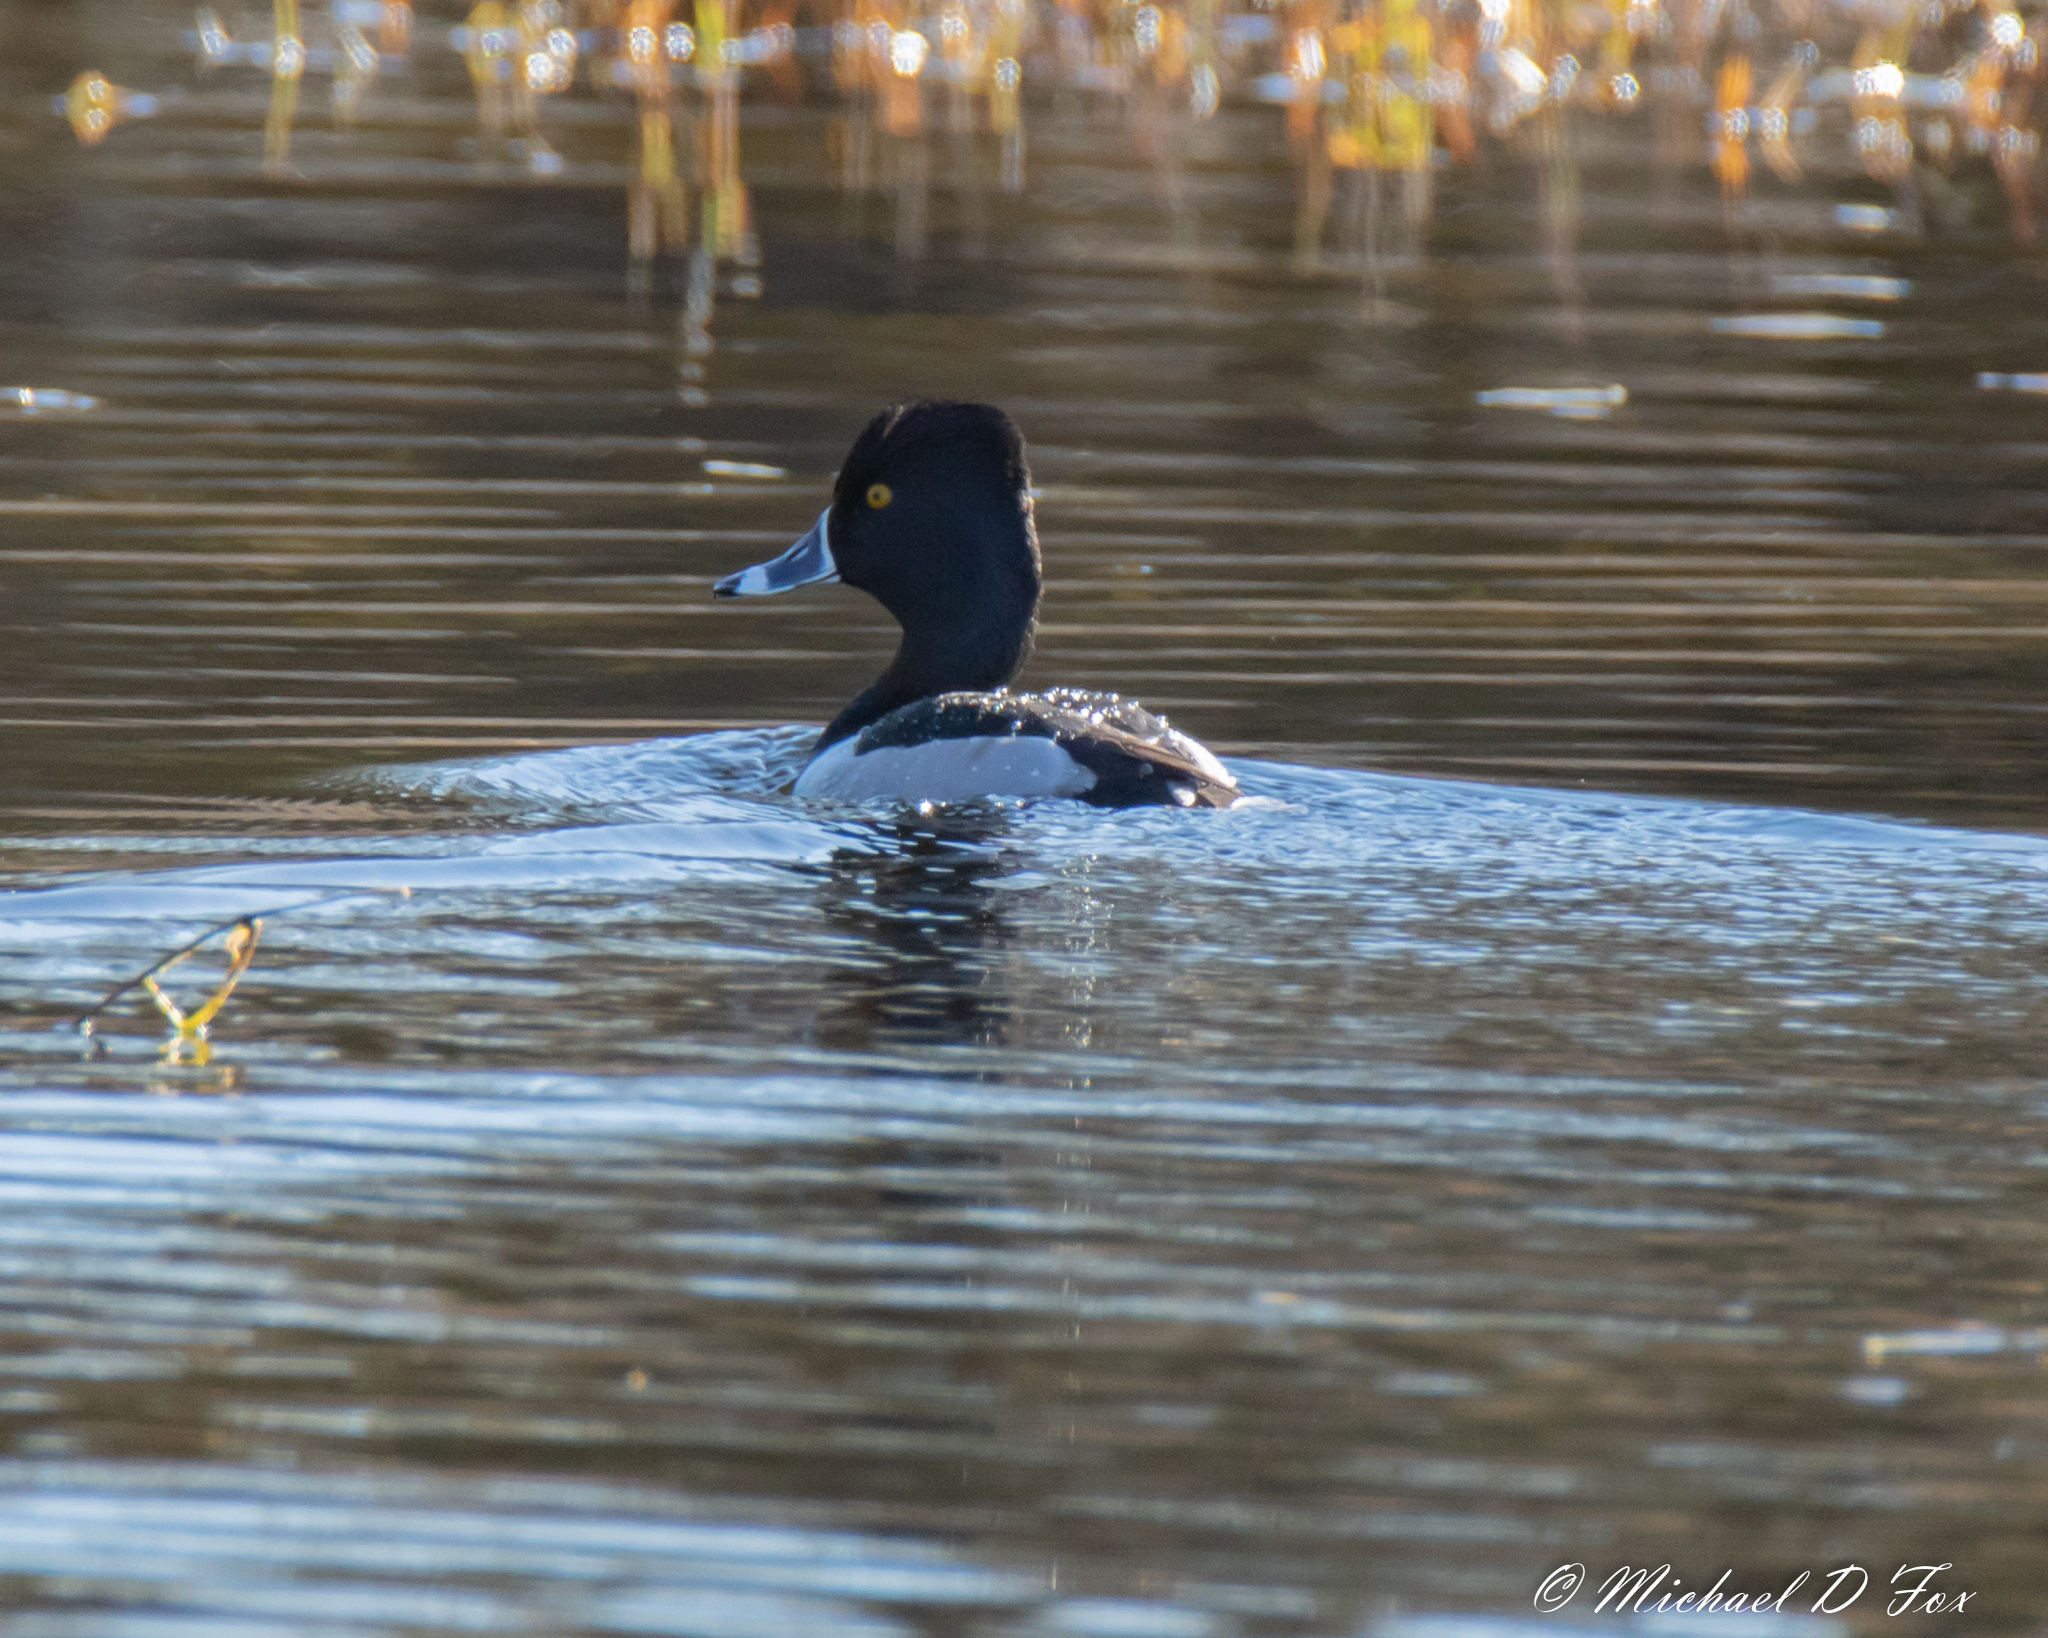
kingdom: Animalia
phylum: Chordata
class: Aves
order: Anseriformes
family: Anatidae
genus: Aythya
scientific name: Aythya collaris
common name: Ring-necked duck
